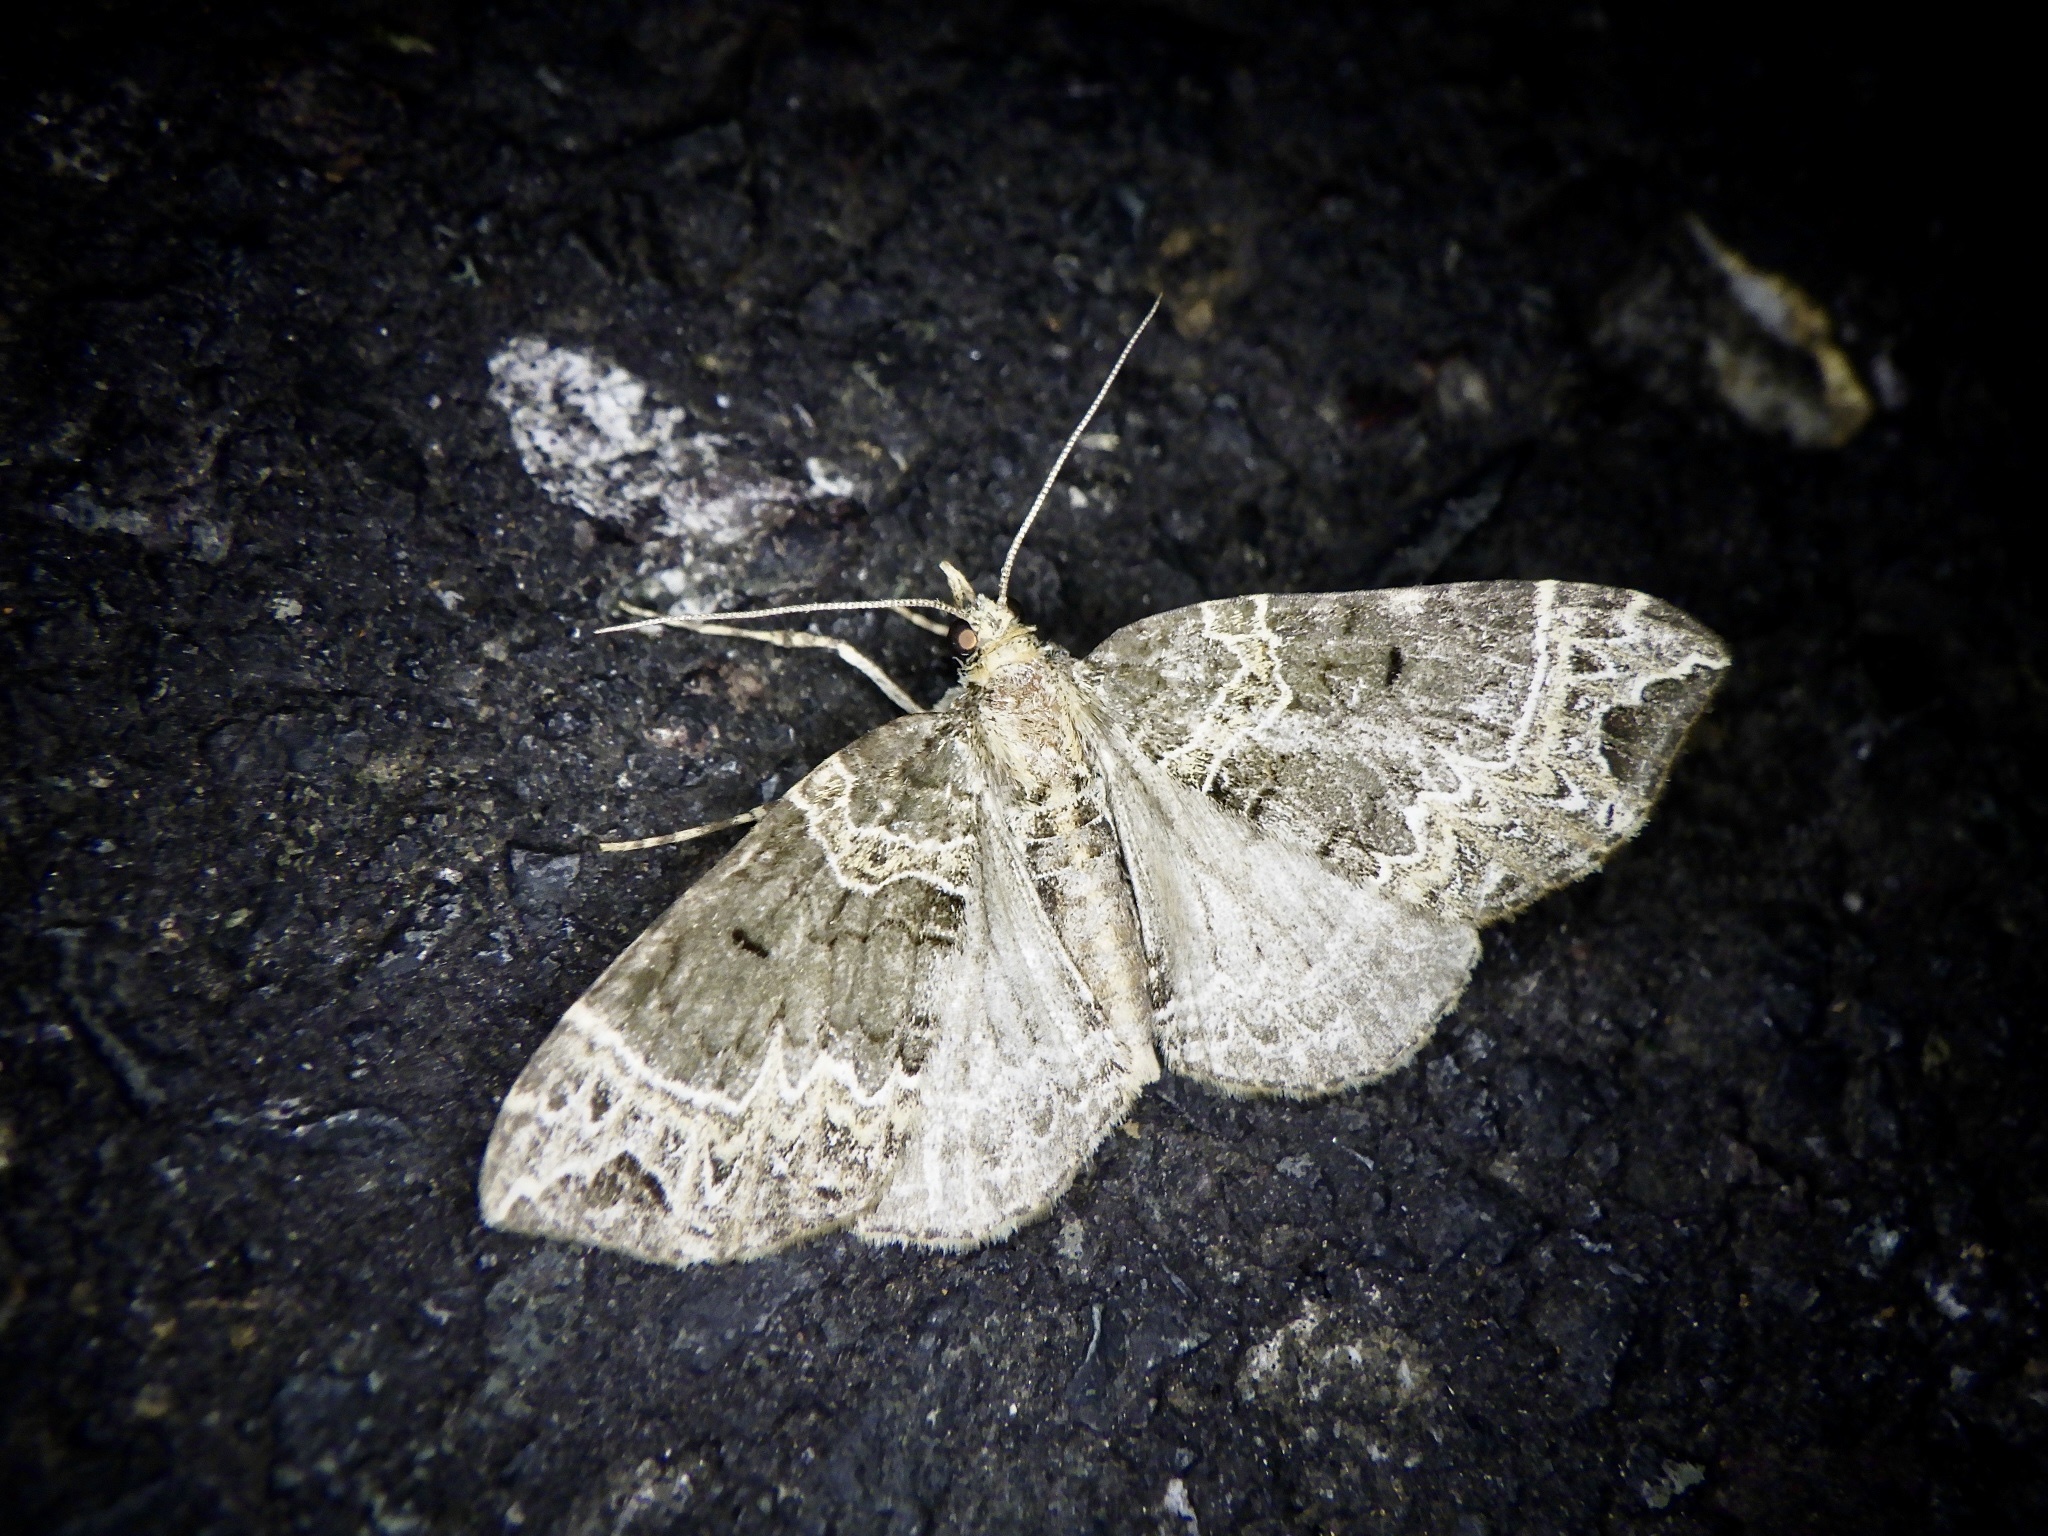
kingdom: Animalia
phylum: Arthropoda
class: Insecta
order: Lepidoptera
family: Geometridae
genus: Ecliptopera
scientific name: Ecliptopera umbrosaria
